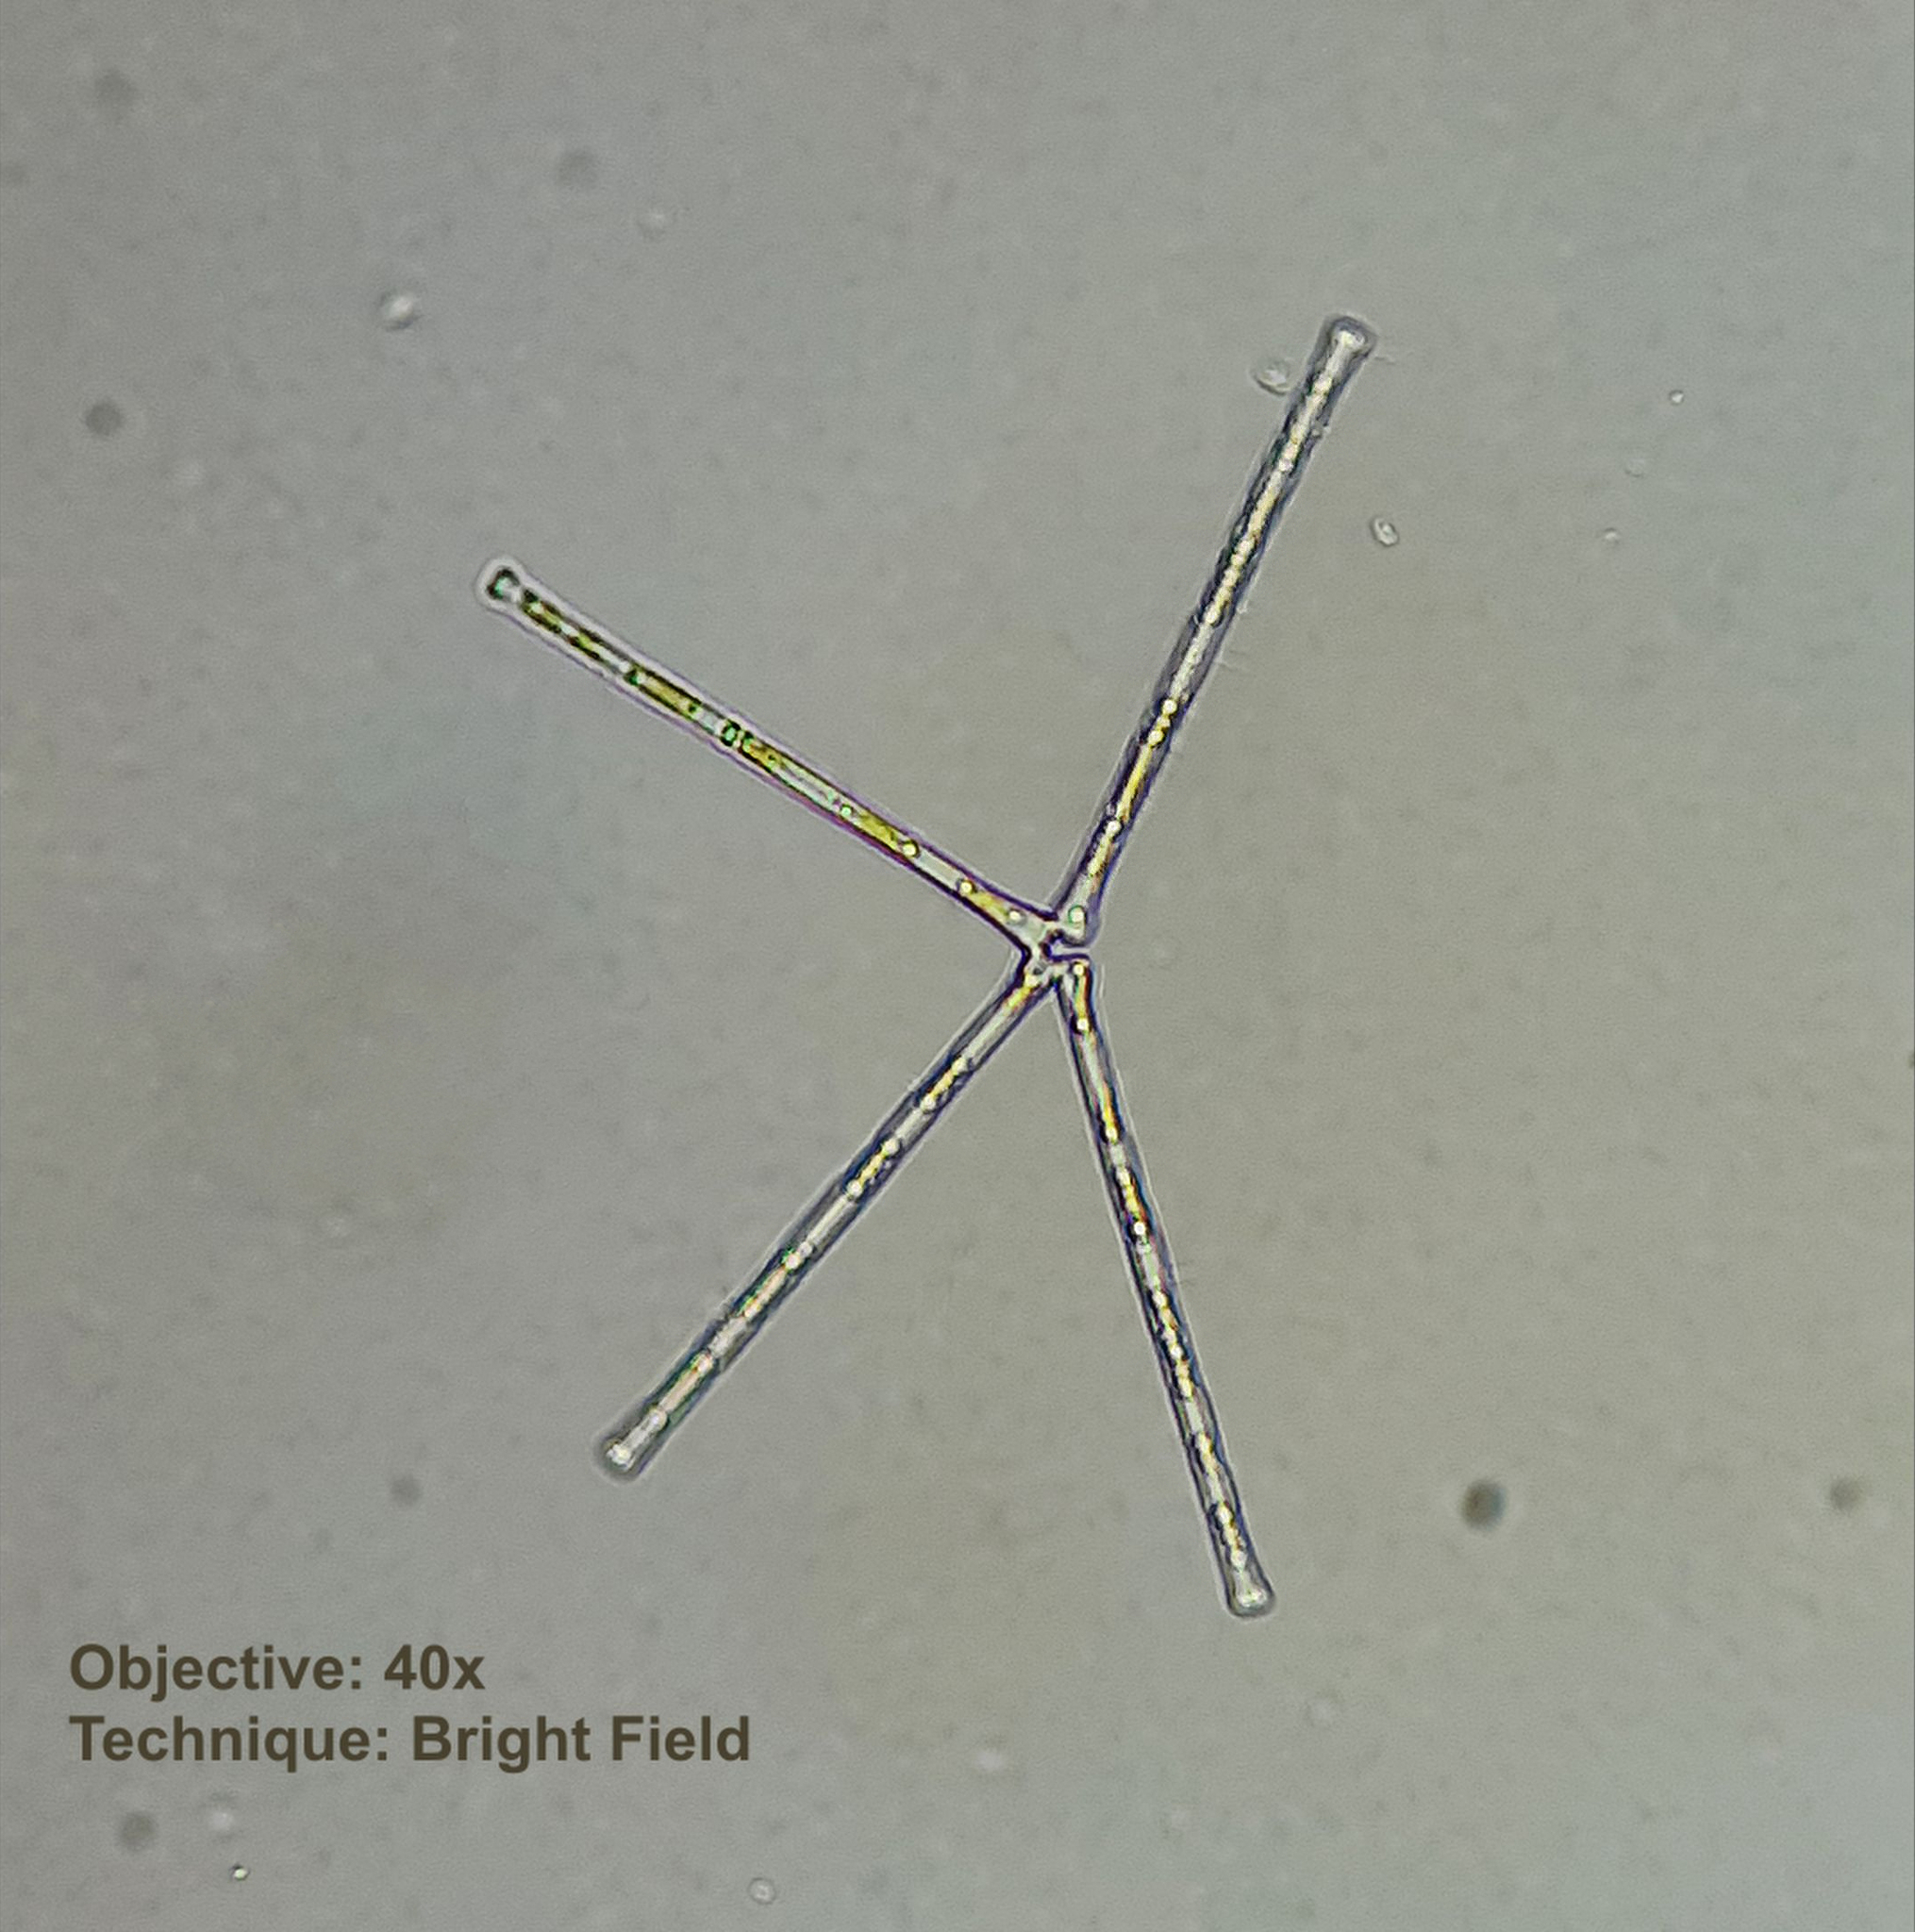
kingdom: Chromista
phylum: Ochrophyta
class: Bacillariophyceae
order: Fragilariales
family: Fragilariaceae
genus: Asterionella
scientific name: Asterionella formosa
